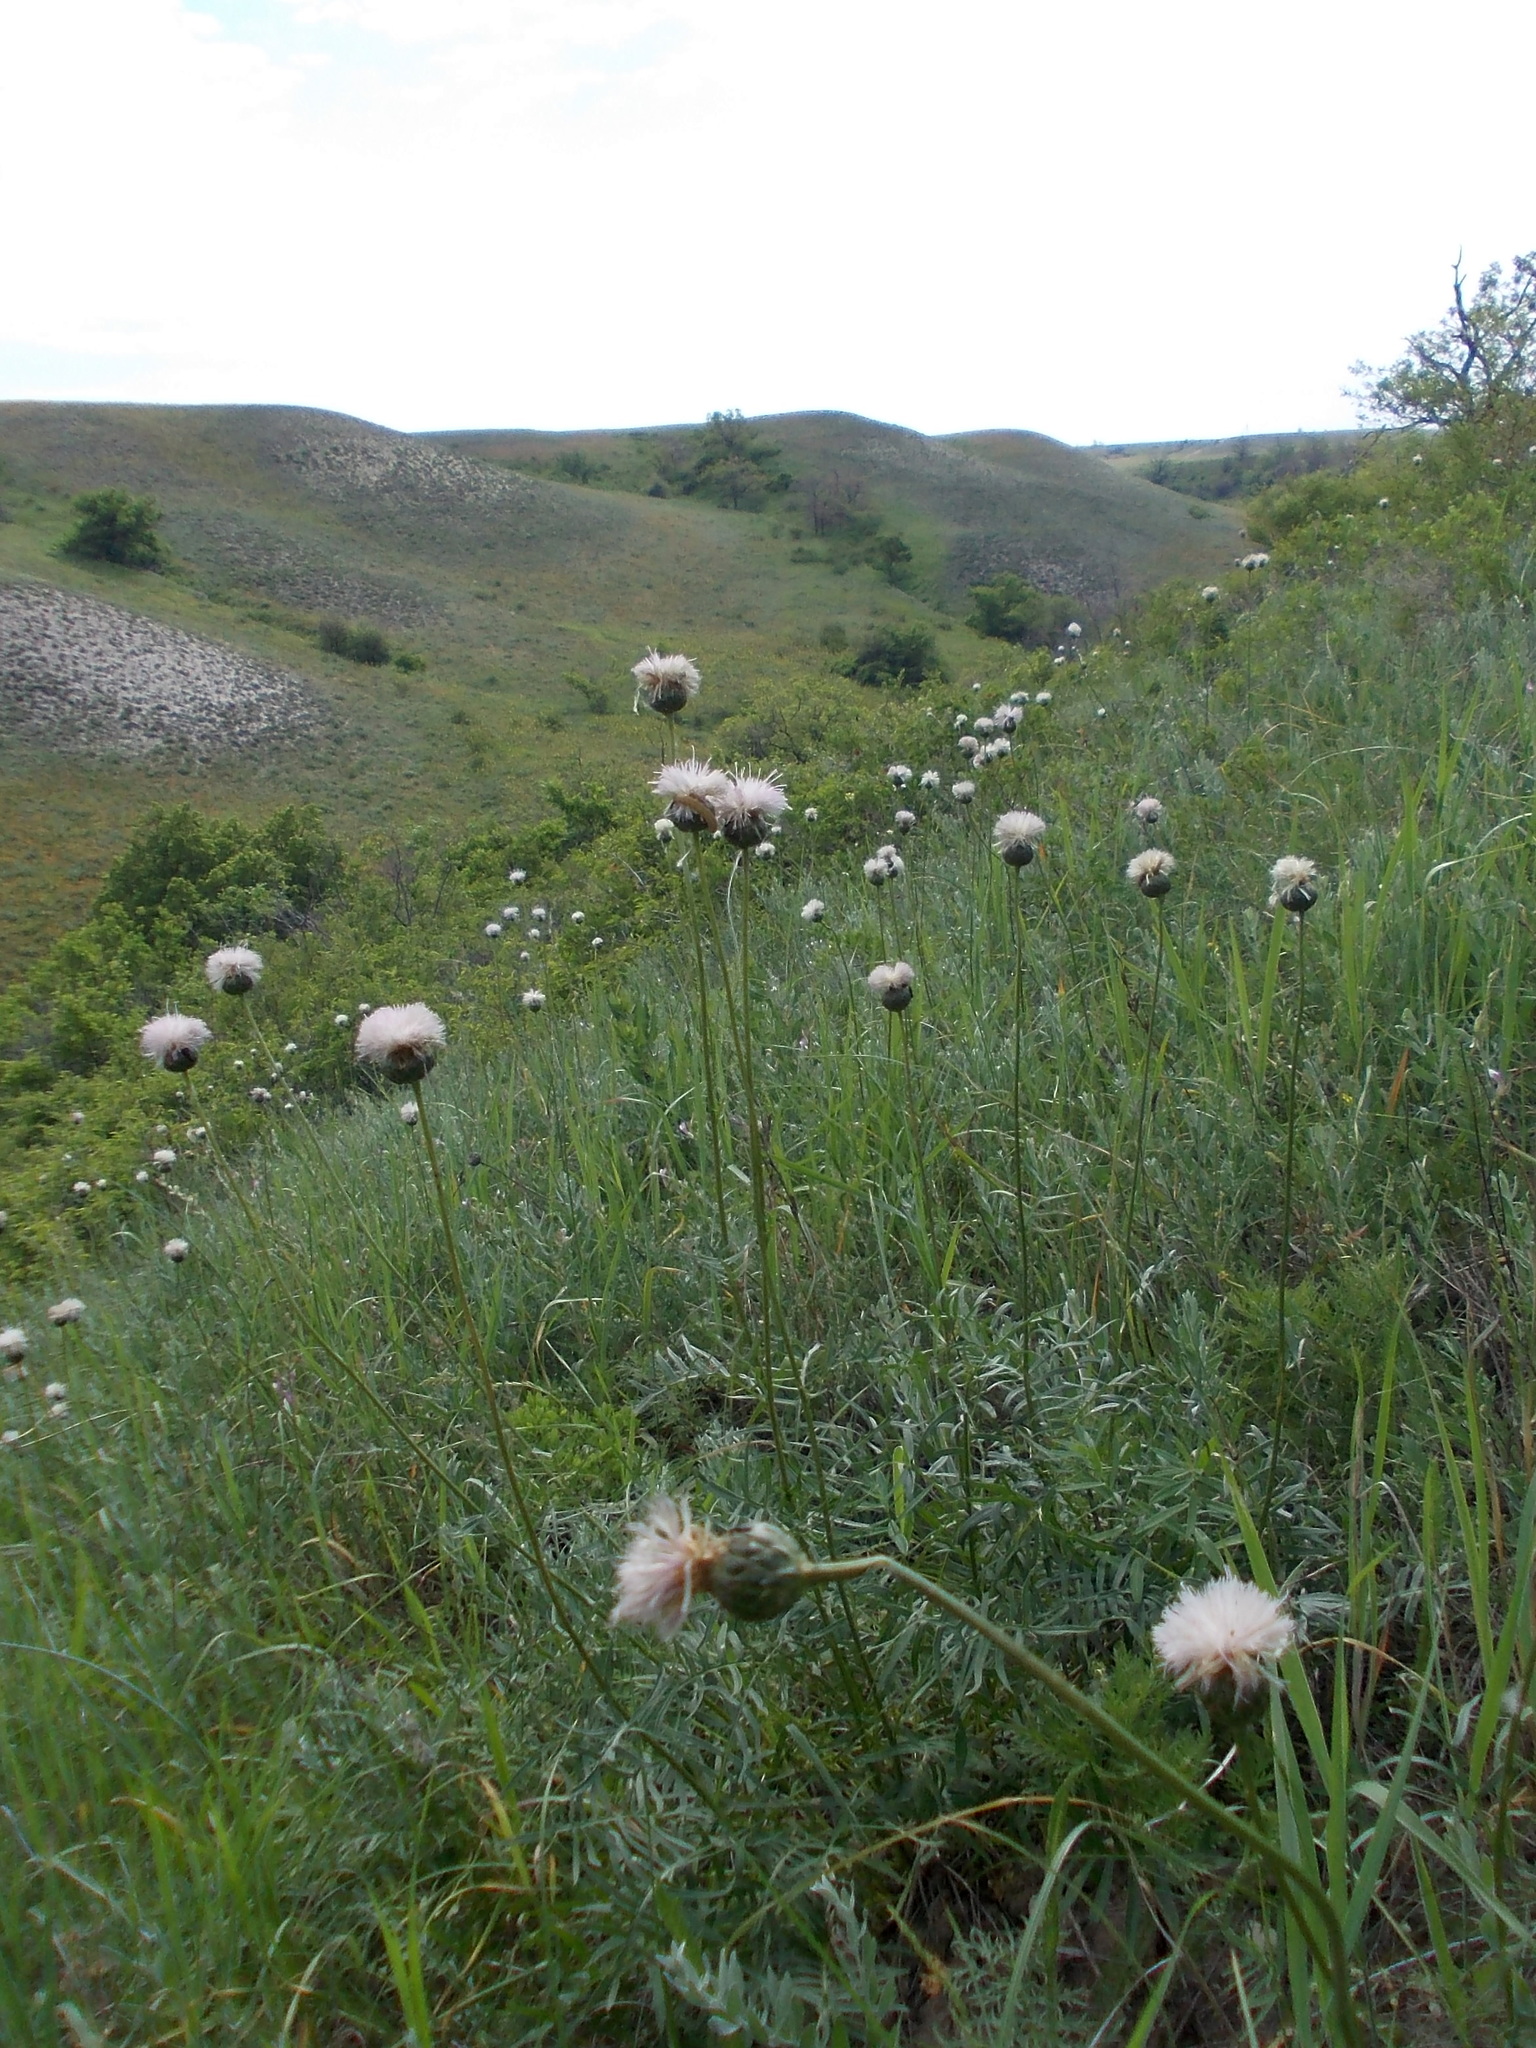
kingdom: Plantae
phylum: Tracheophyta
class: Magnoliopsida
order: Asterales
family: Asteraceae
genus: Klasea
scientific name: Klasea radiata
